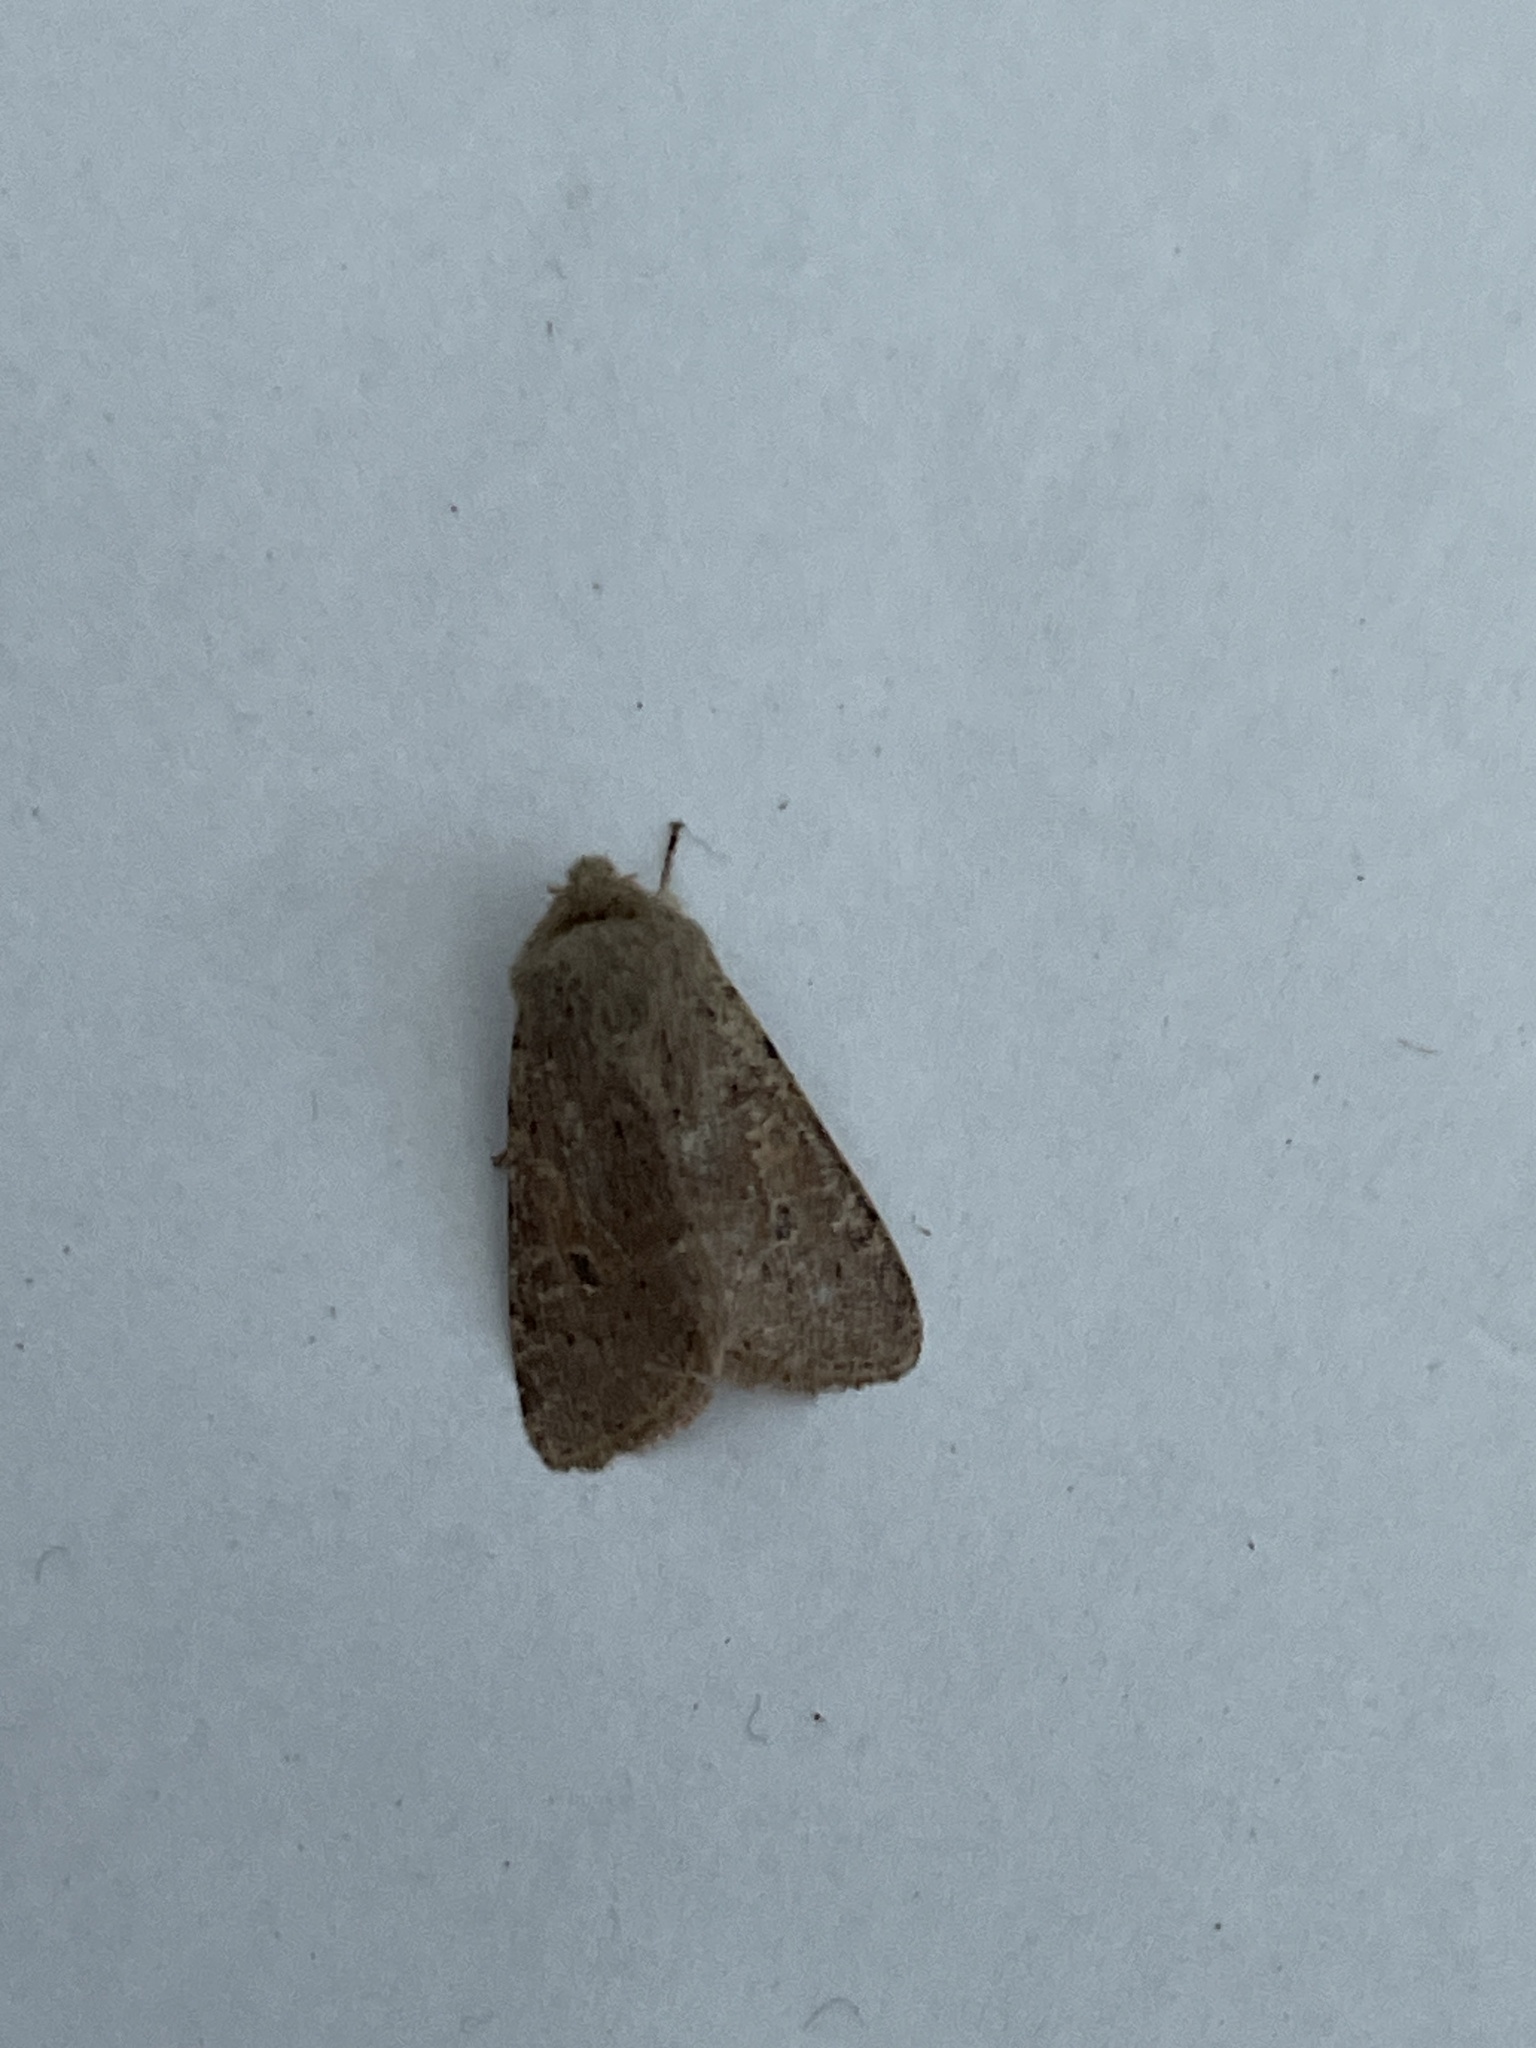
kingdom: Animalia
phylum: Arthropoda
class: Insecta
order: Lepidoptera
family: Noctuidae
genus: Orthosia
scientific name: Orthosia cruda
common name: Small quaker
